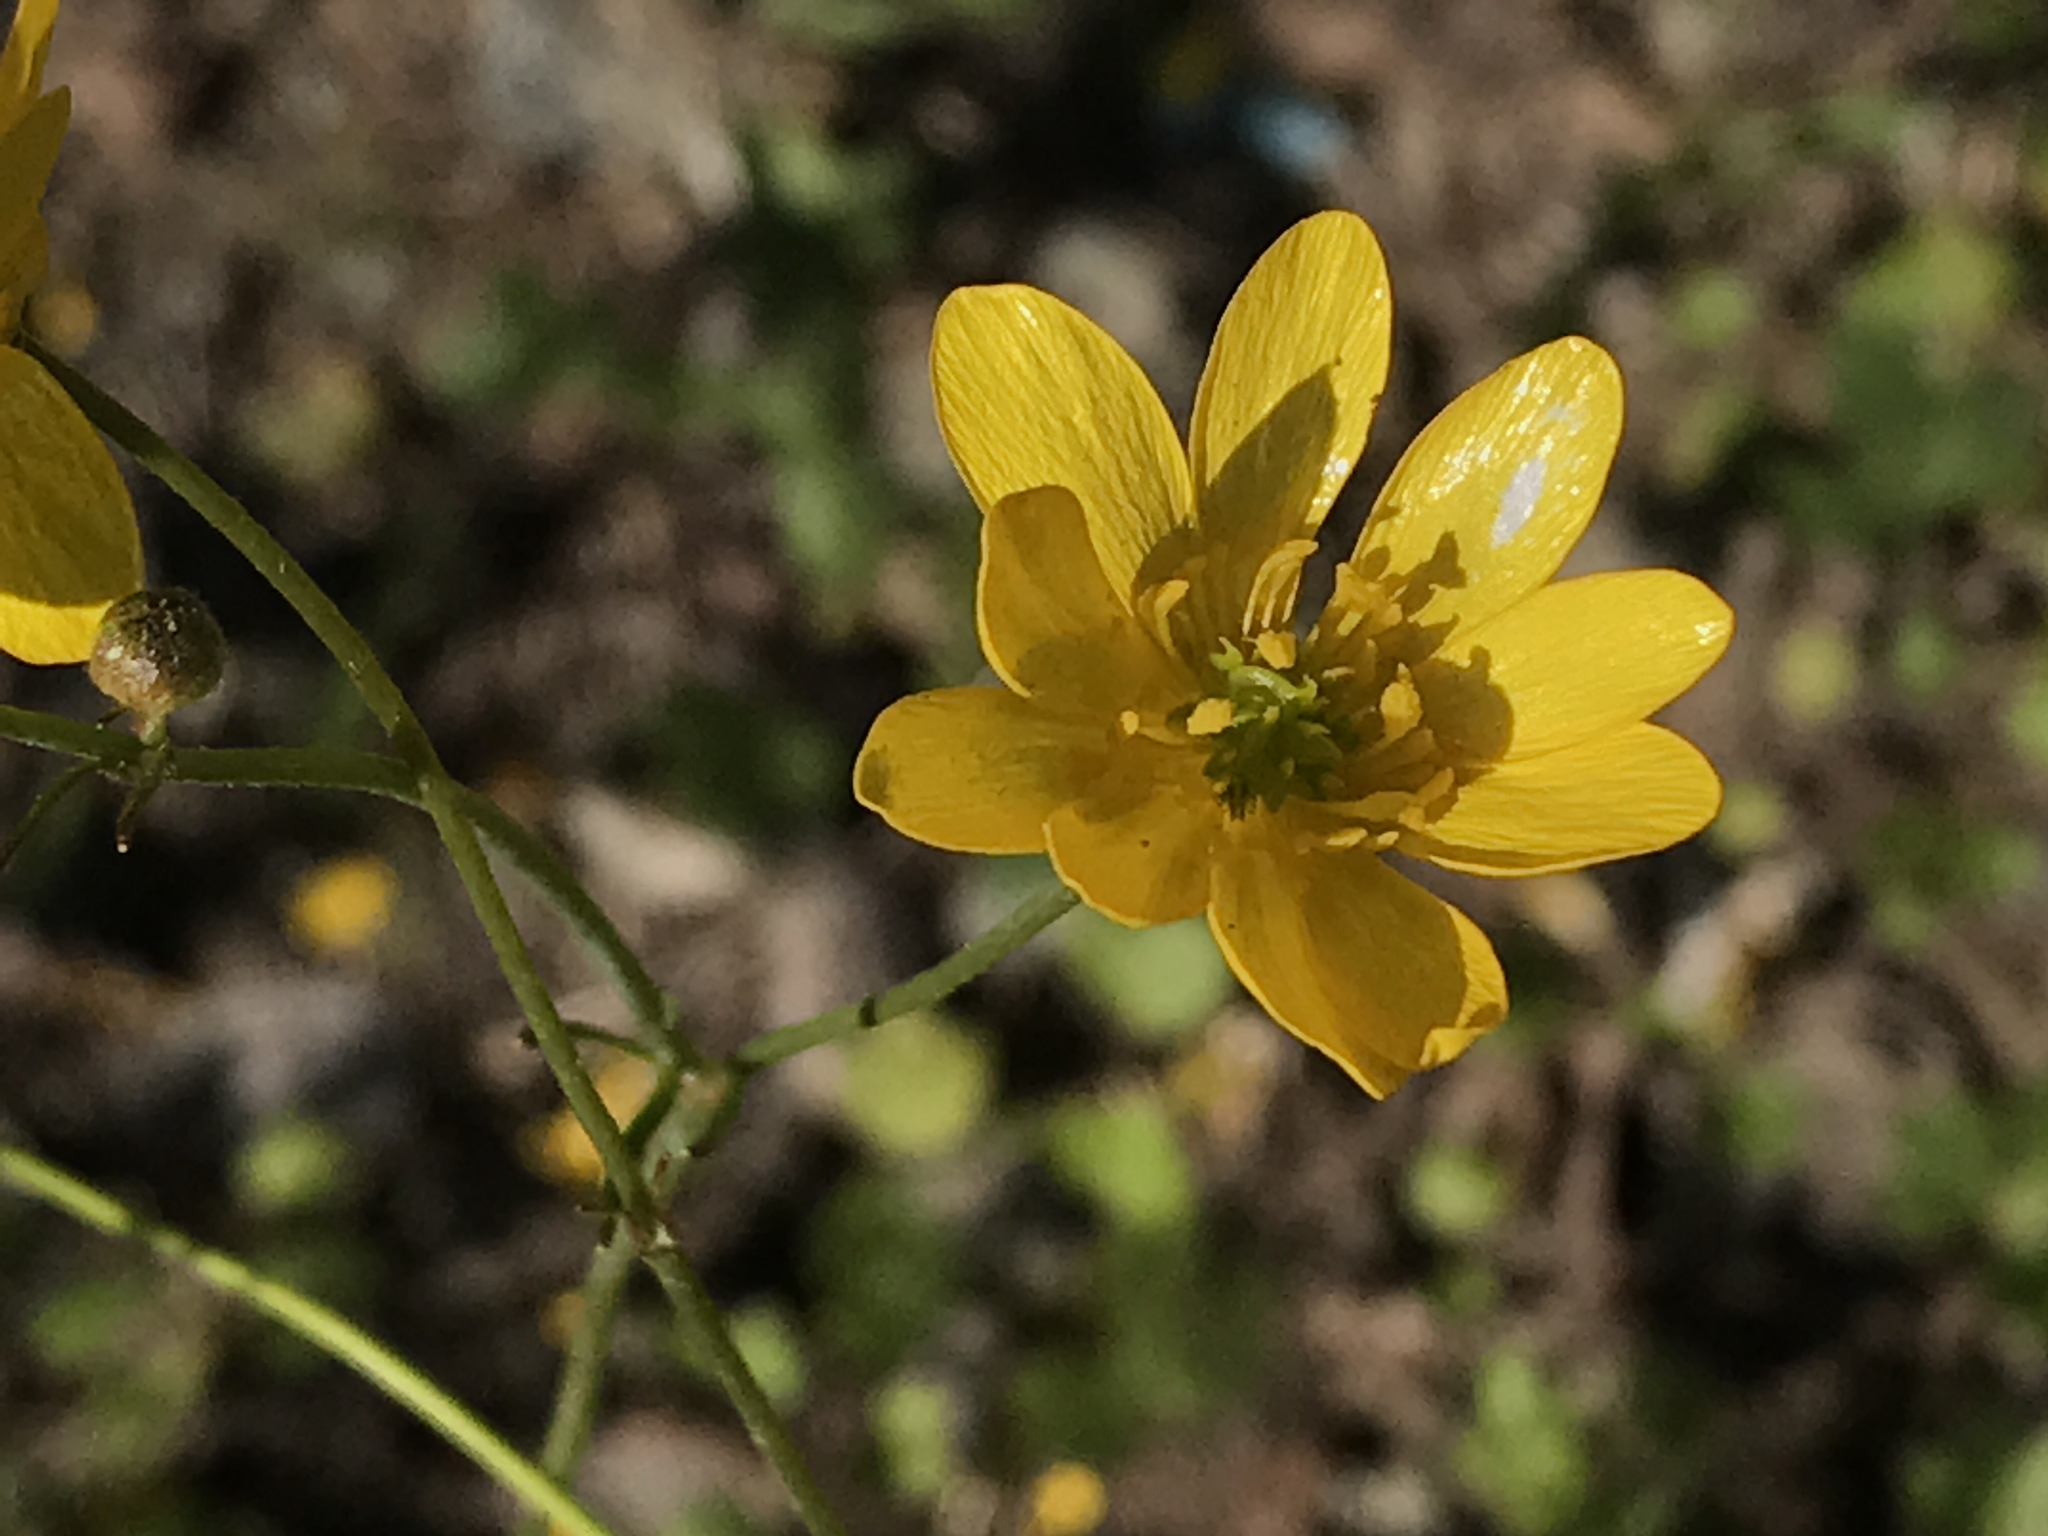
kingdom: Plantae
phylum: Tracheophyta
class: Magnoliopsida
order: Ranunculales
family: Ranunculaceae
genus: Ranunculus
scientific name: Ranunculus californicus
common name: California buttercup
